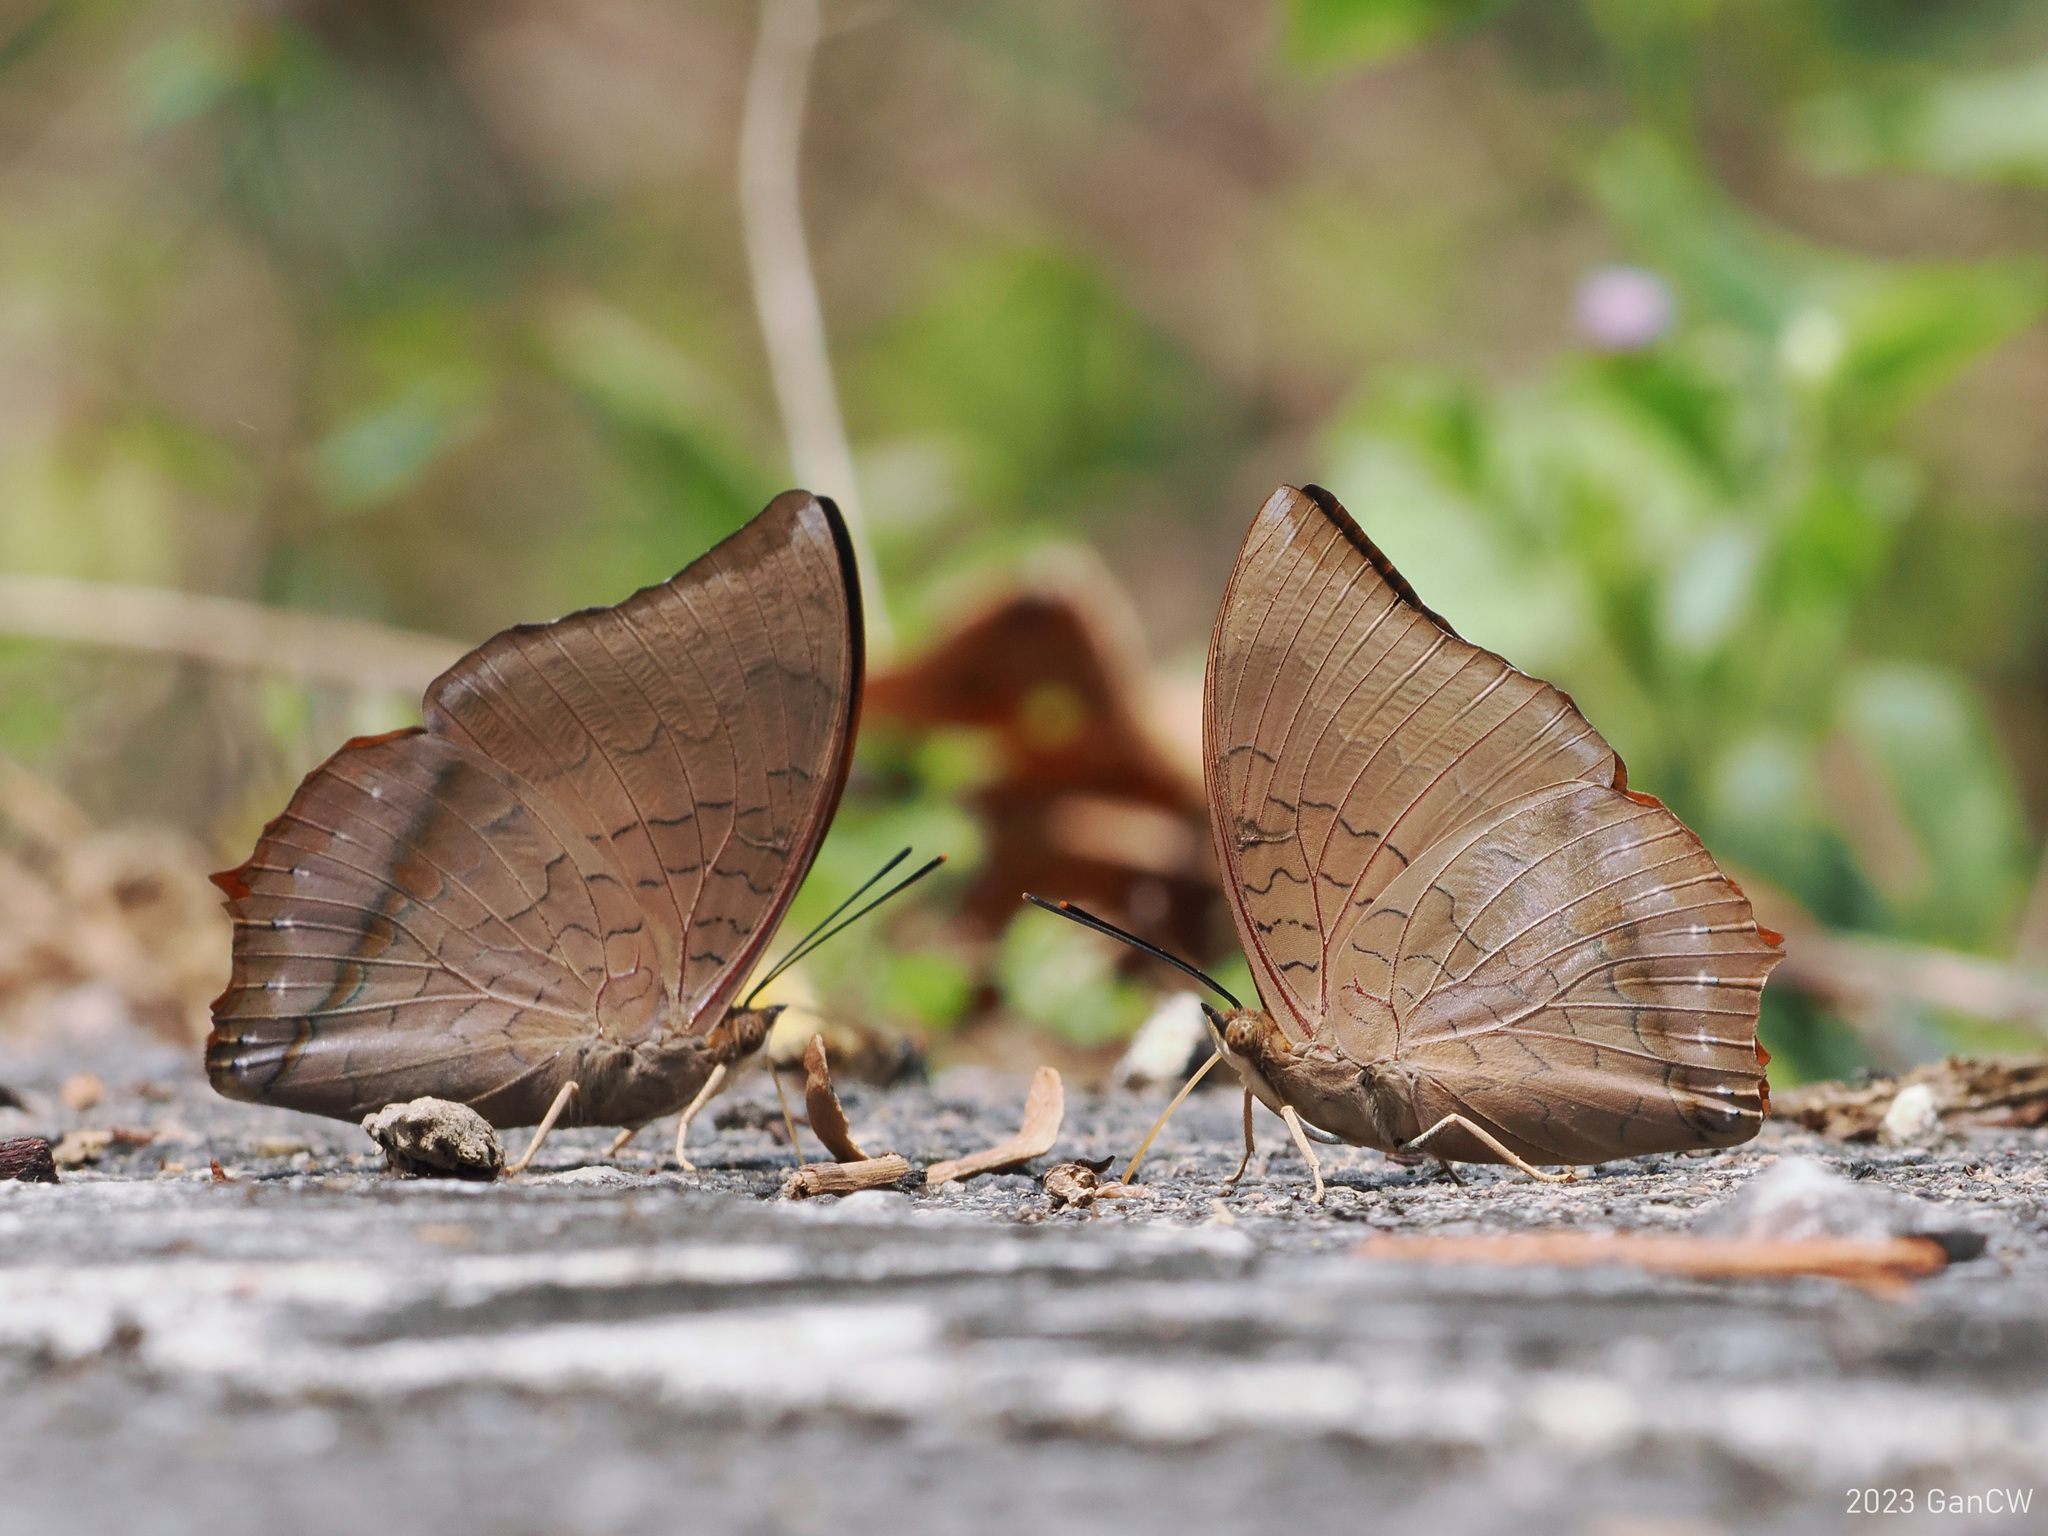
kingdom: Animalia
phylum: Arthropoda
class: Insecta
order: Lepidoptera
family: Nymphalidae
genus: Charaxes
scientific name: Charaxes bernardus
